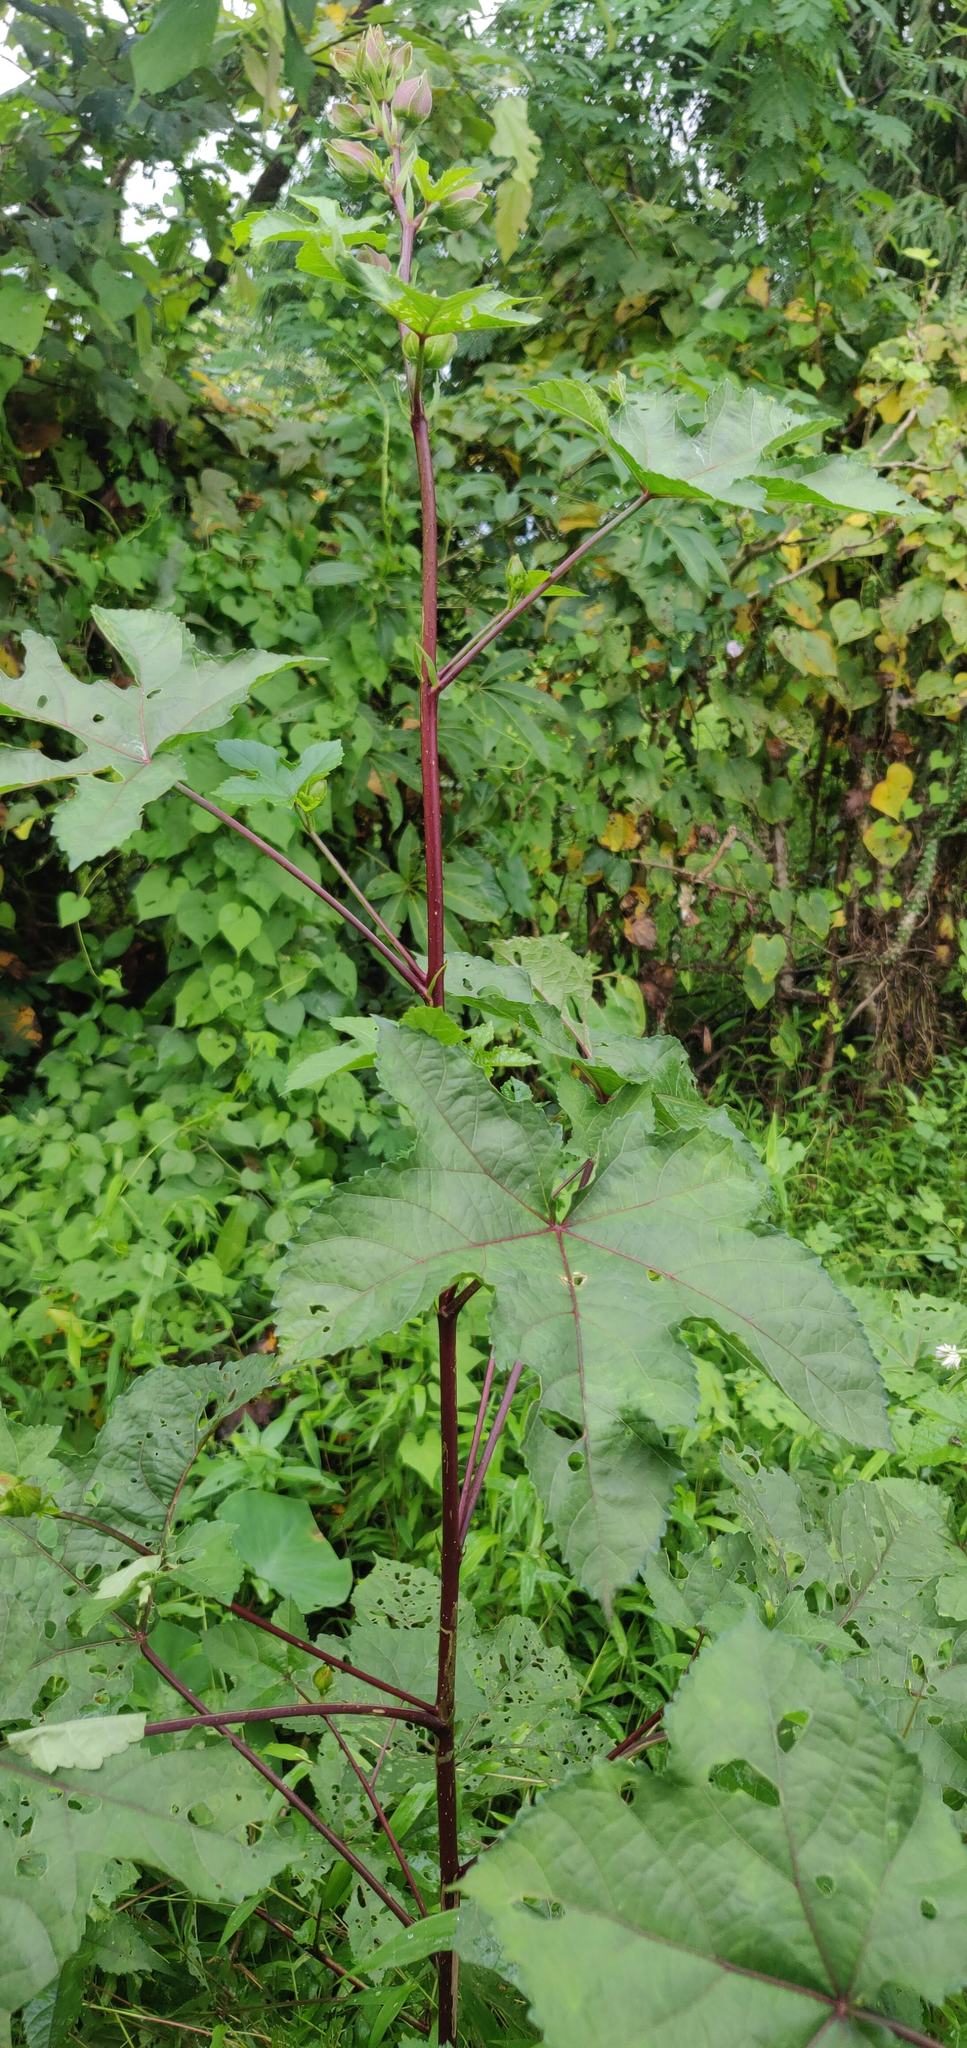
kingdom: Plantae
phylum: Tracheophyta
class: Magnoliopsida
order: Malvales
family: Malvaceae
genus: Abelmoschus
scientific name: Abelmoschus manihot
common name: Sunset muskmallow
